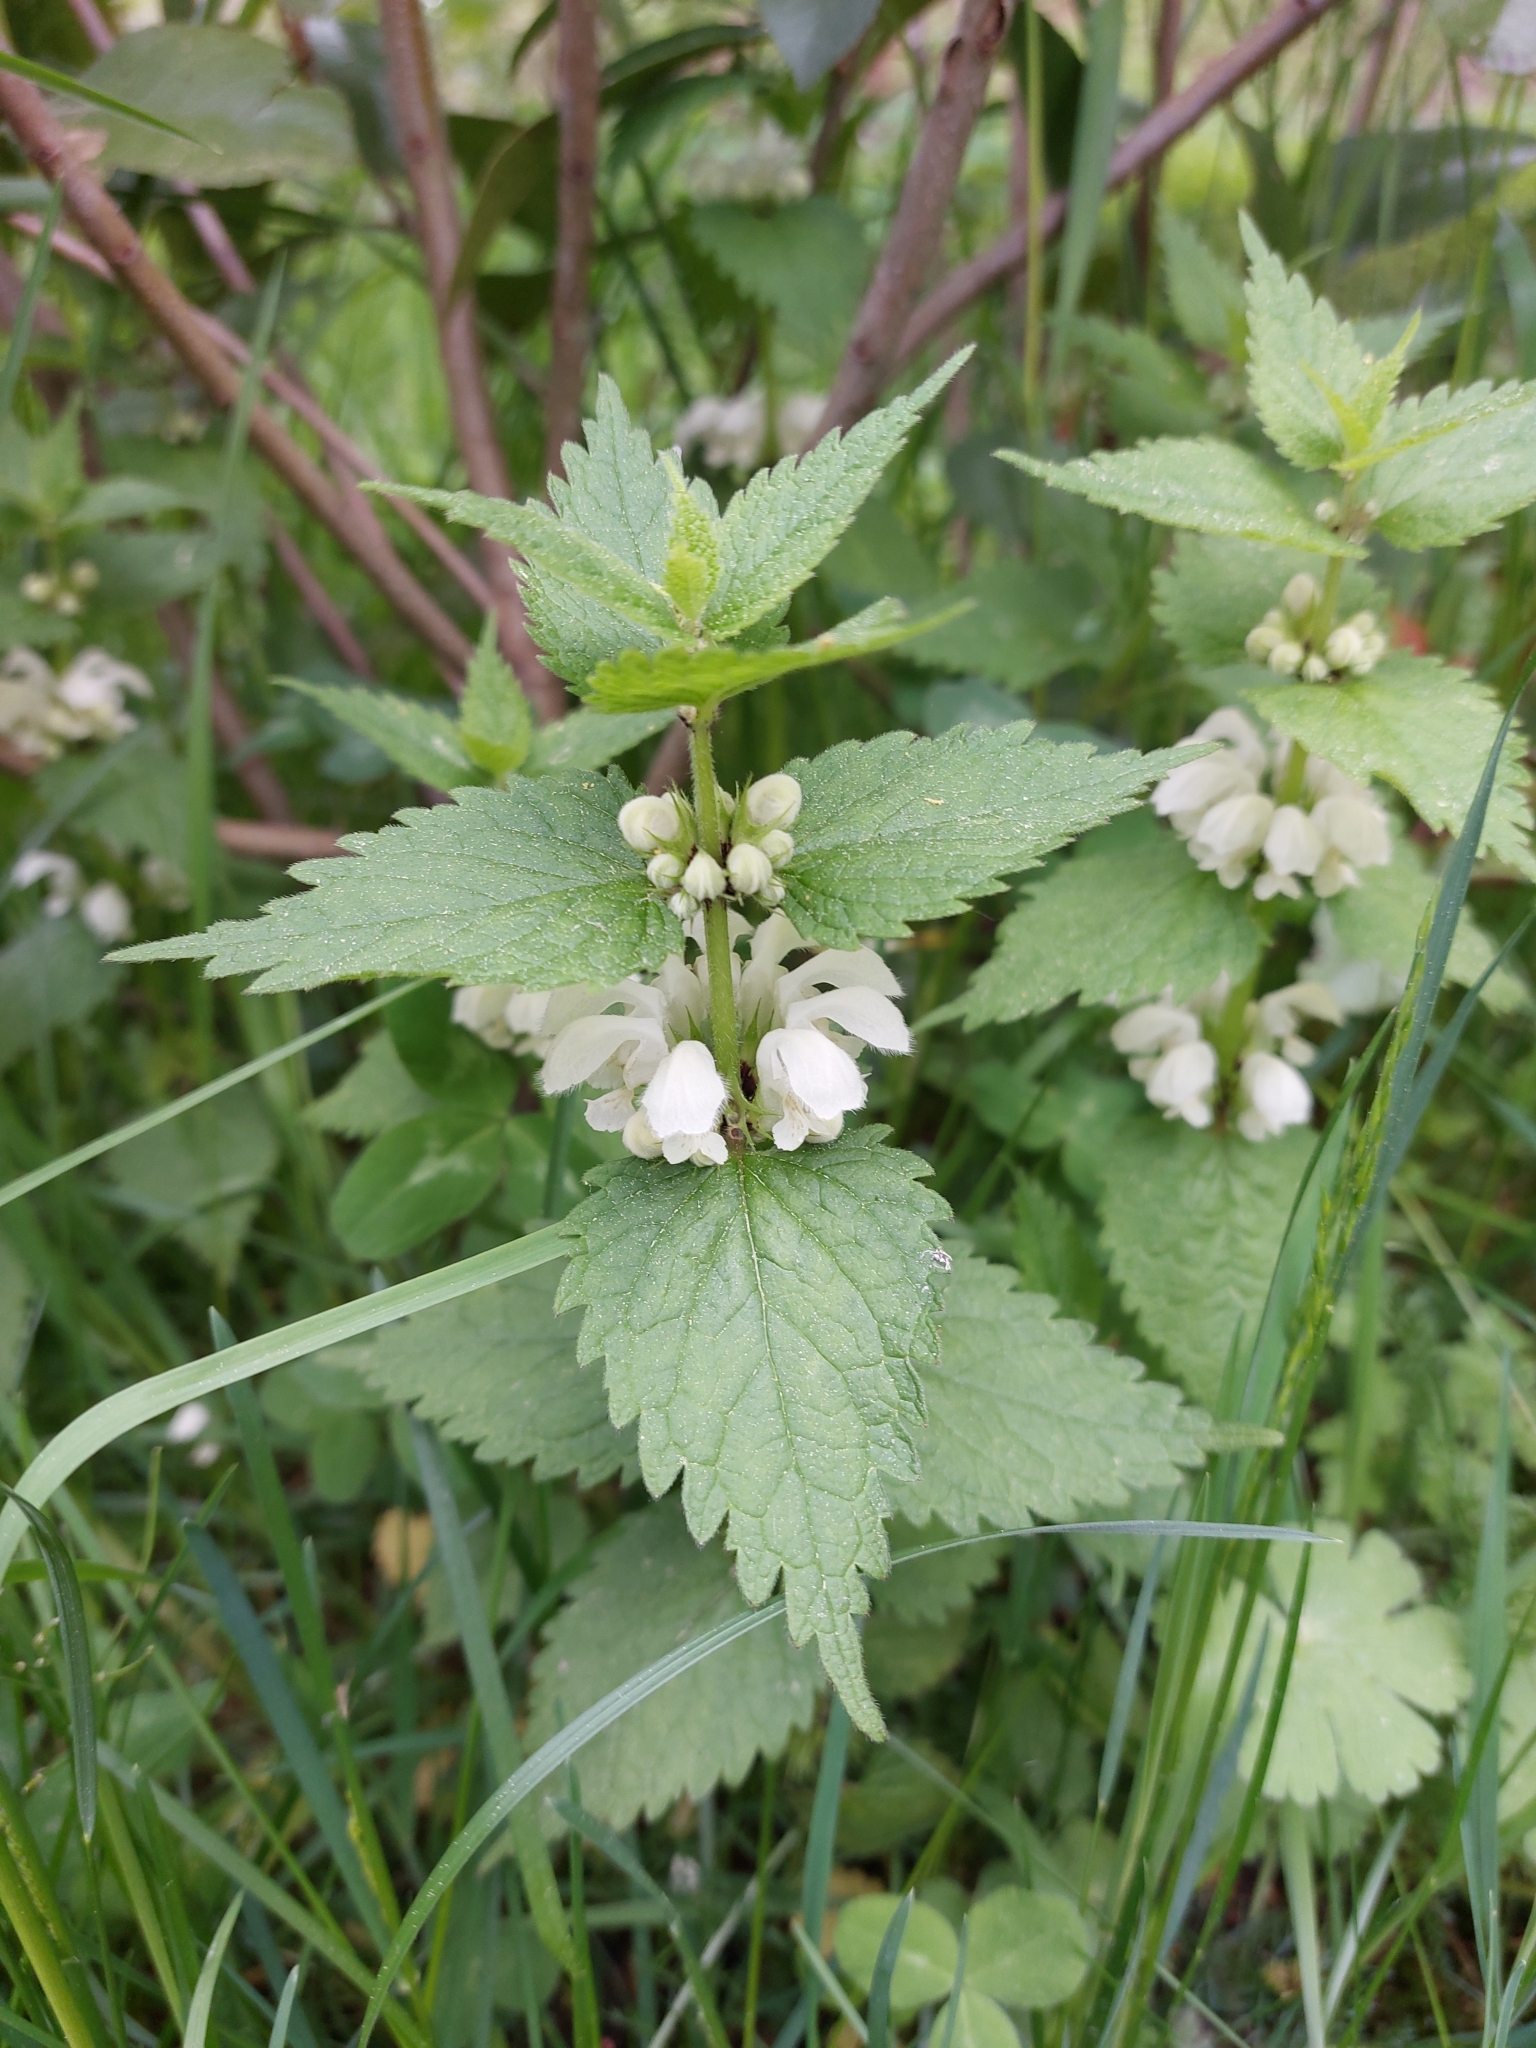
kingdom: Plantae
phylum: Tracheophyta
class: Magnoliopsida
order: Lamiales
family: Lamiaceae
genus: Lamium
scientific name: Lamium album
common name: White dead-nettle
